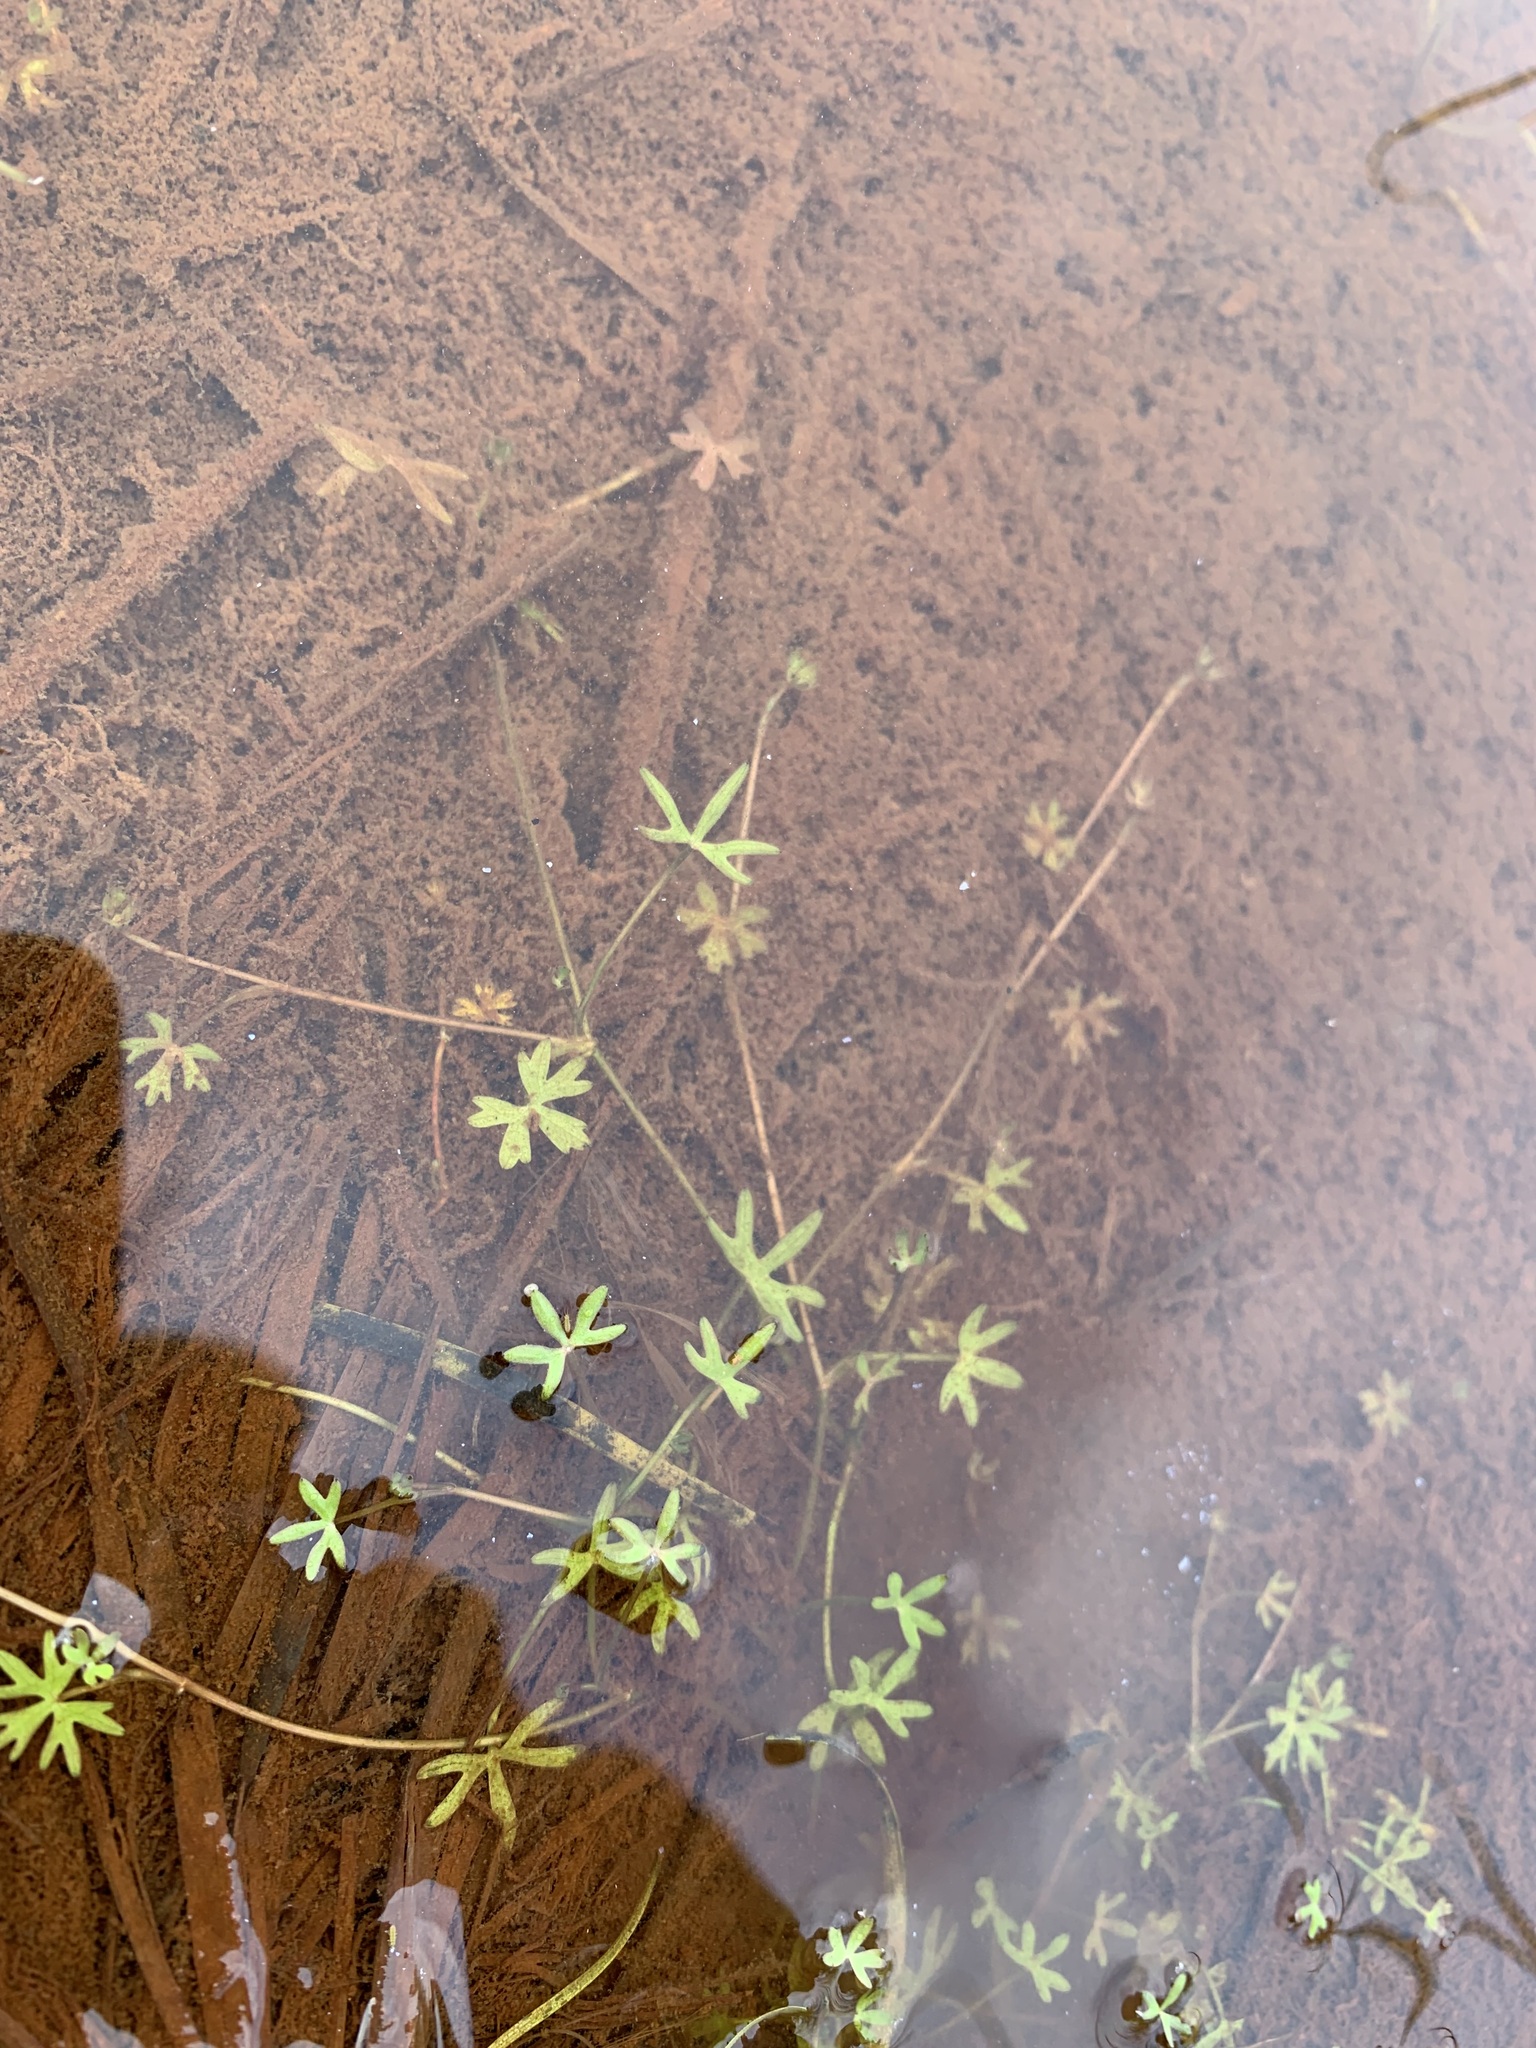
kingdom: Plantae
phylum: Tracheophyta
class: Magnoliopsida
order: Ranunculales
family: Ranunculaceae
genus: Ranunculus
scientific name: Ranunculus gmelinii
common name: Gmelin's buttercup
